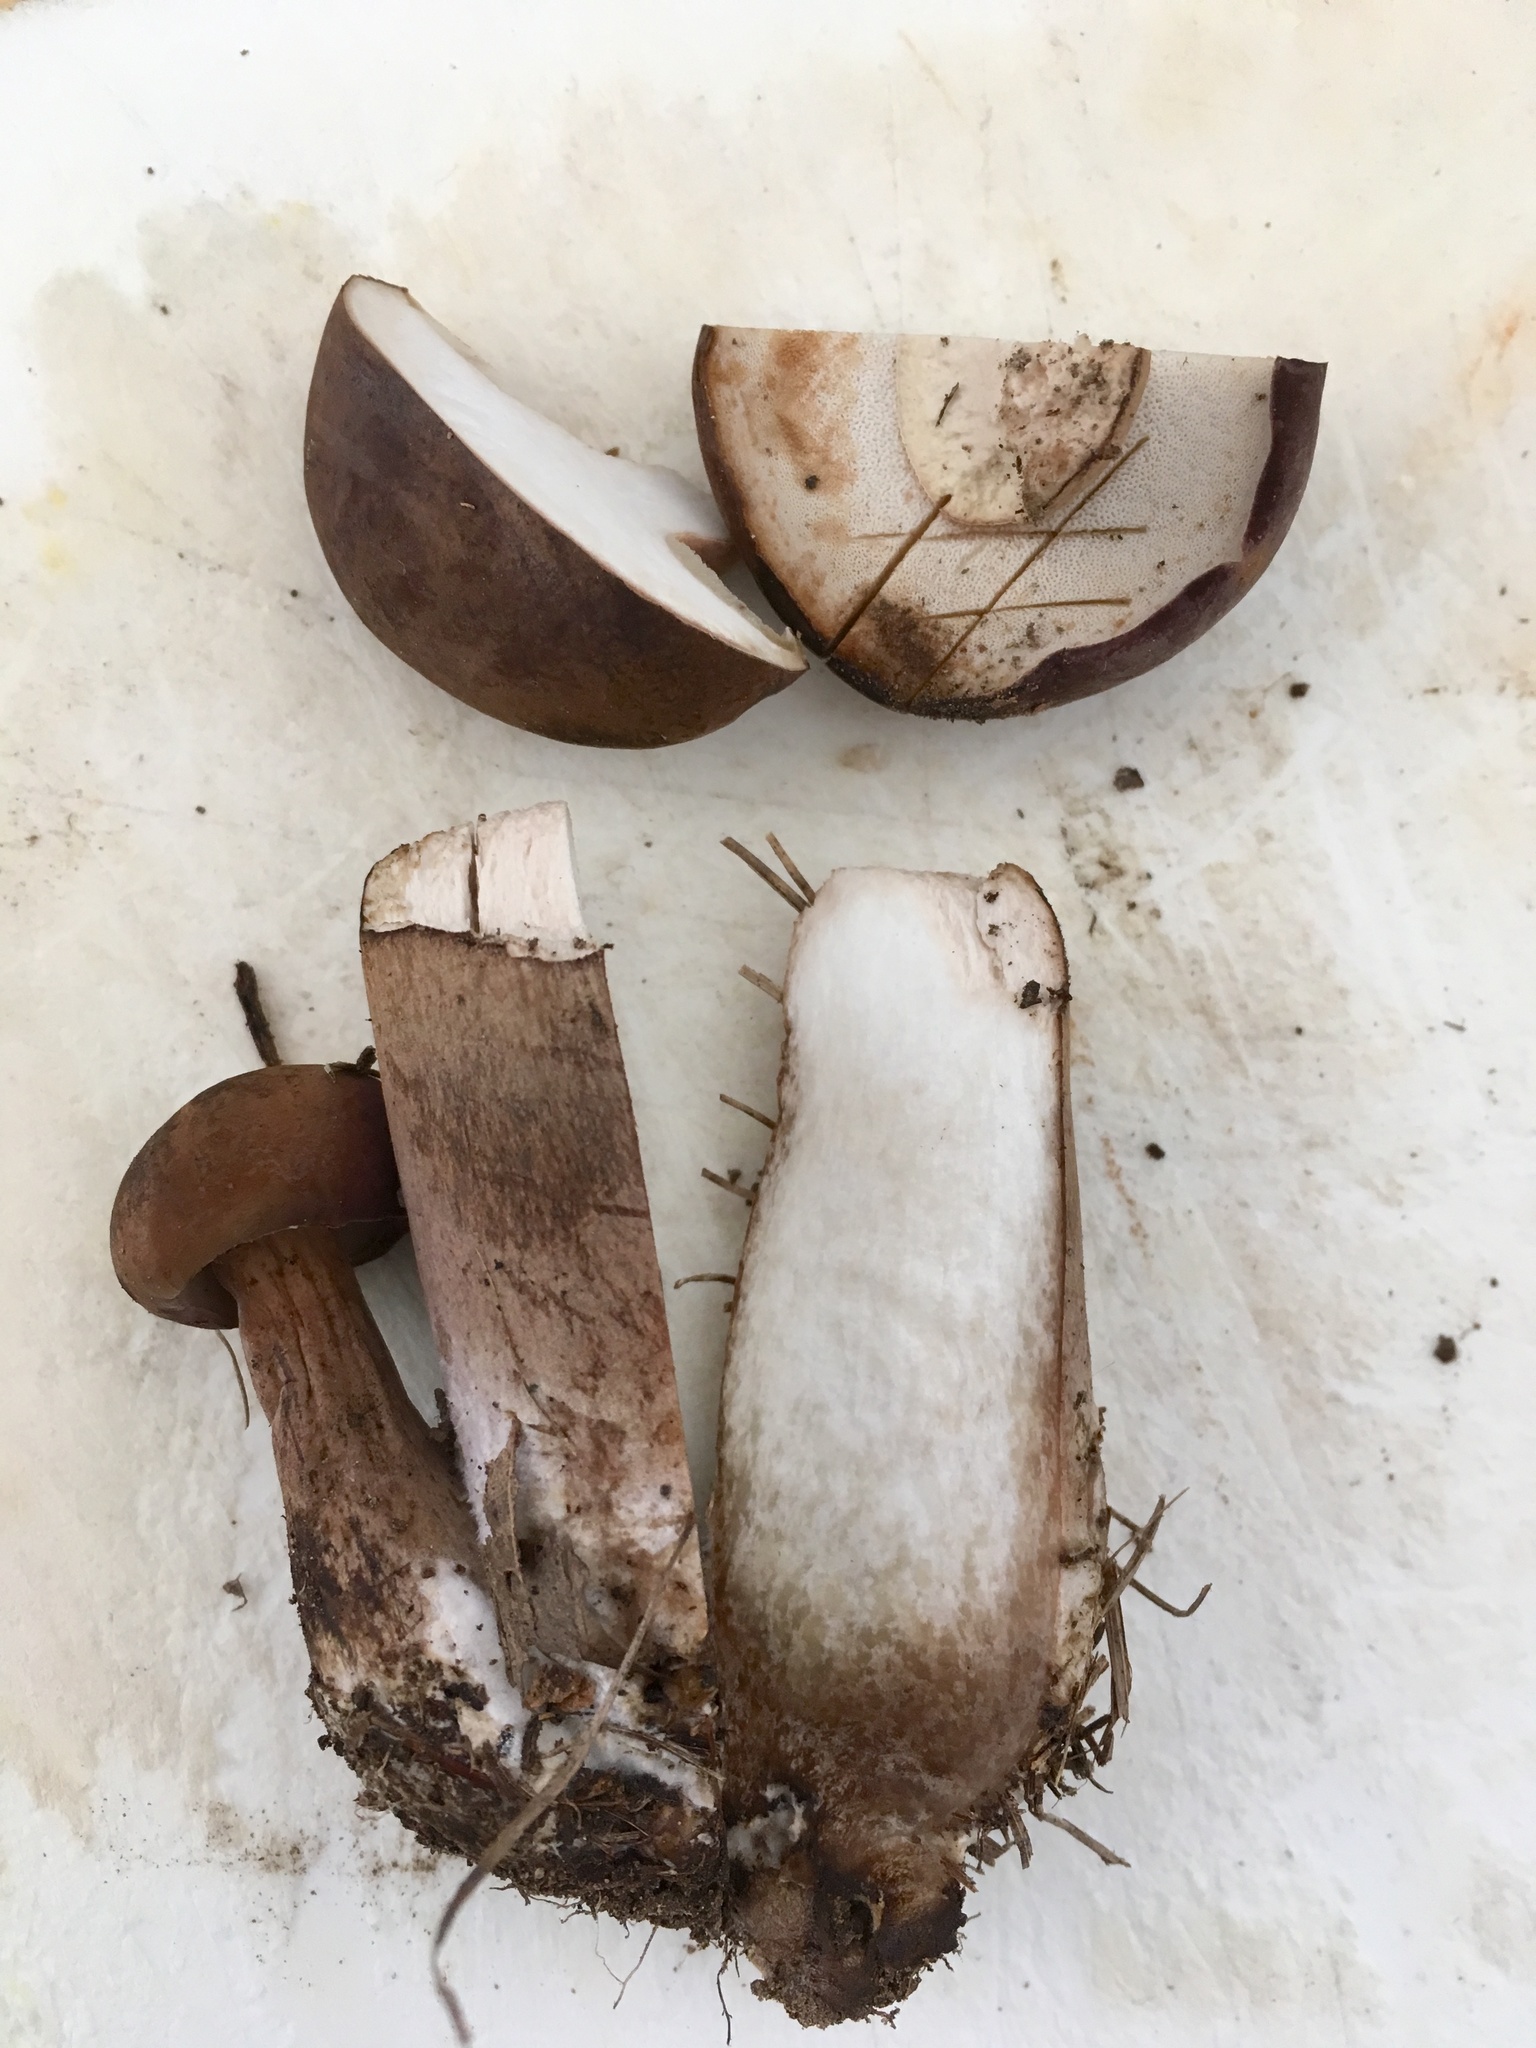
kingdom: Fungi
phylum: Basidiomycota
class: Agaricomycetes
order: Boletales
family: Boletaceae
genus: Tylopilus
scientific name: Tylopilus ferrugineus
